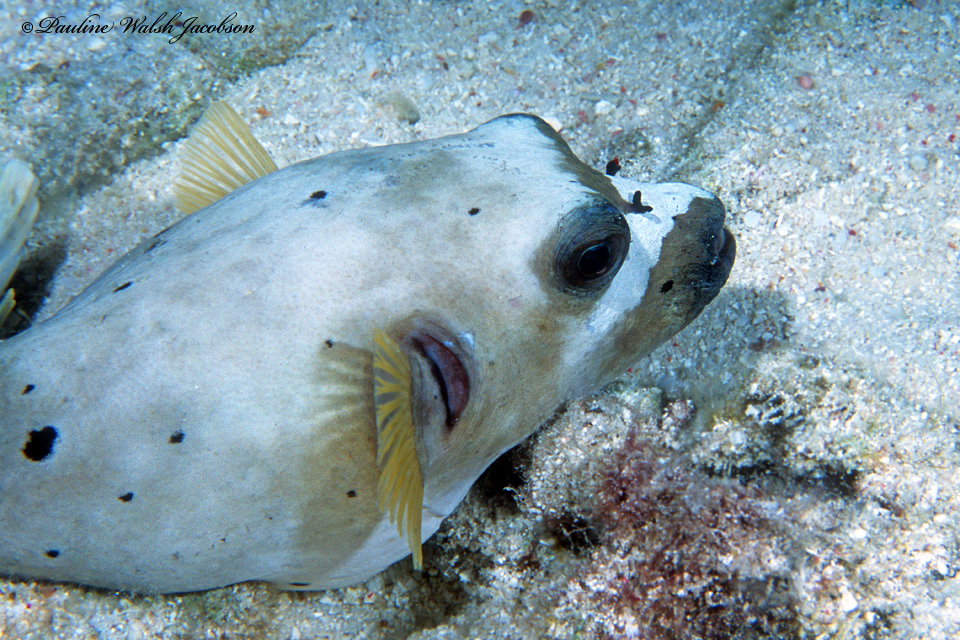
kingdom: Animalia
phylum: Chordata
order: Tetraodontiformes
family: Tetraodontidae
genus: Arothron
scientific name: Arothron nigropunctatus
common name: Black spotted blow fish
